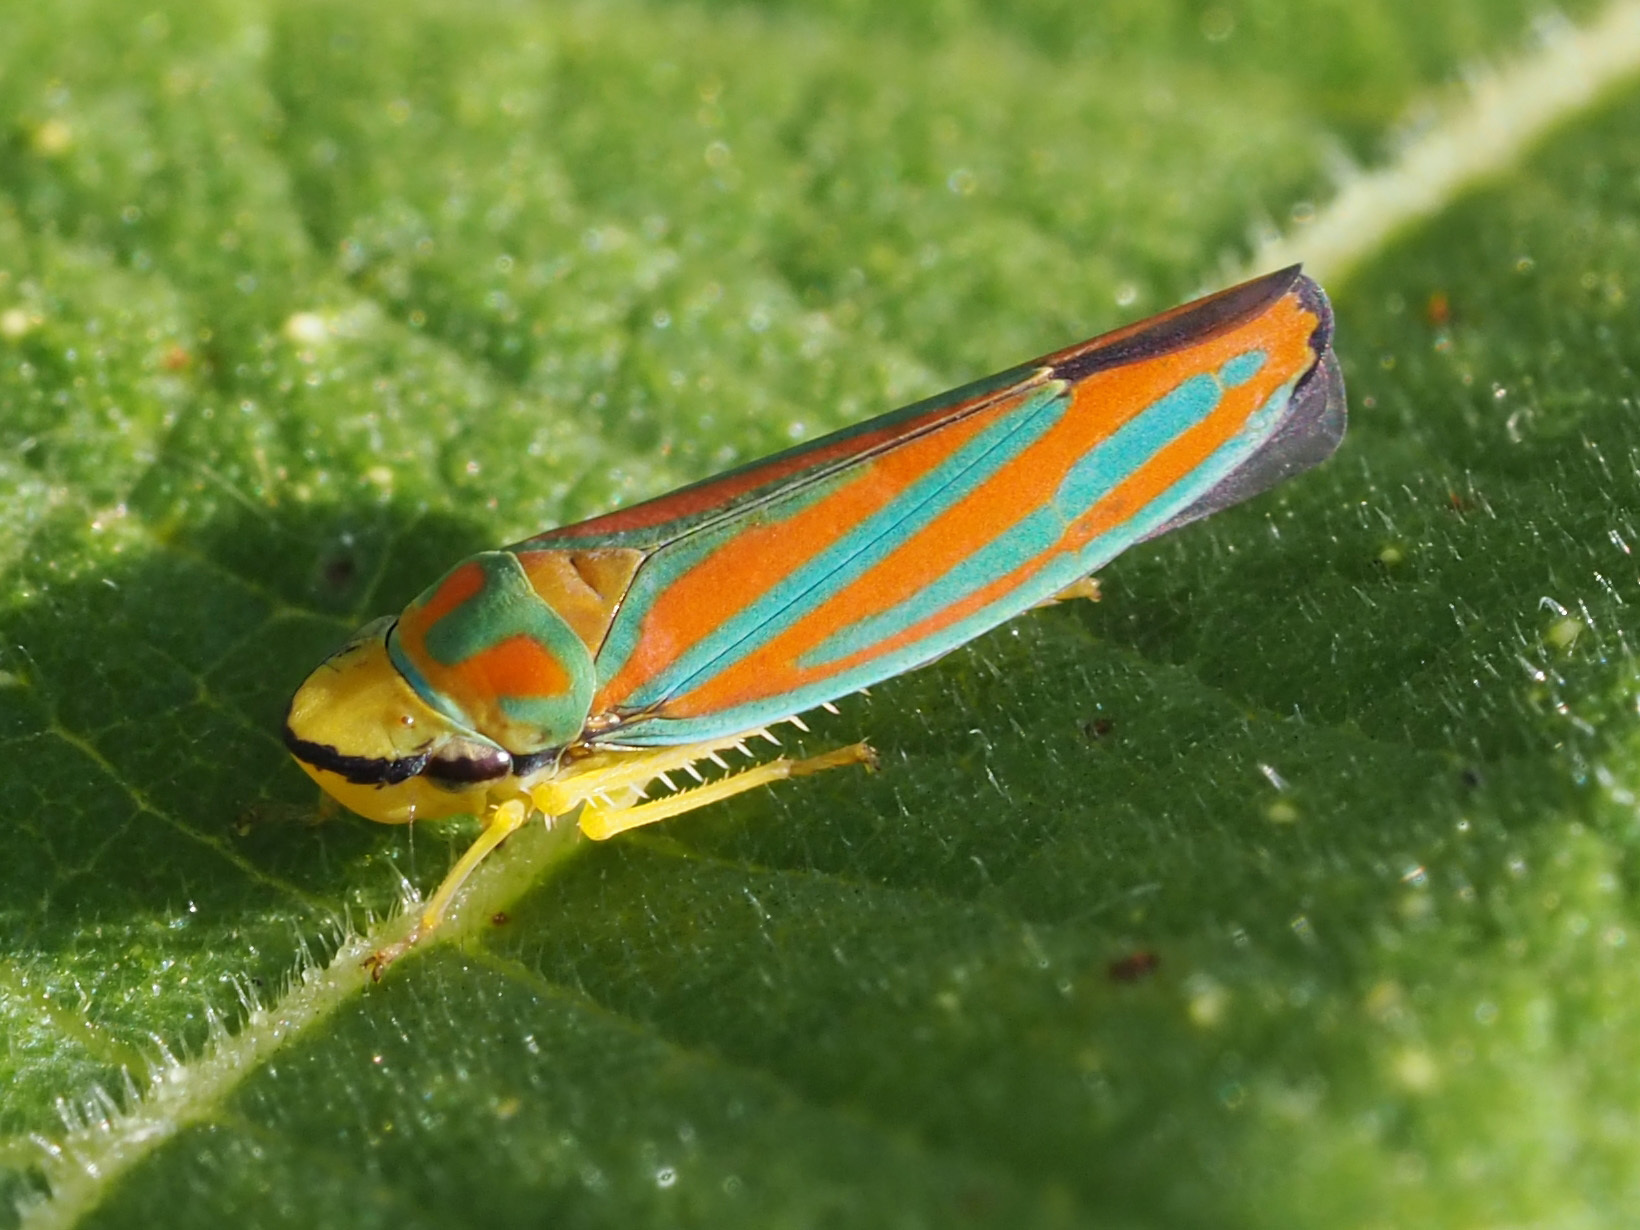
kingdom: Animalia
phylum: Arthropoda
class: Insecta
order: Hemiptera
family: Cicadellidae
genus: Graphocephala
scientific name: Graphocephala coccinea
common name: Candy-striped leafhopper
